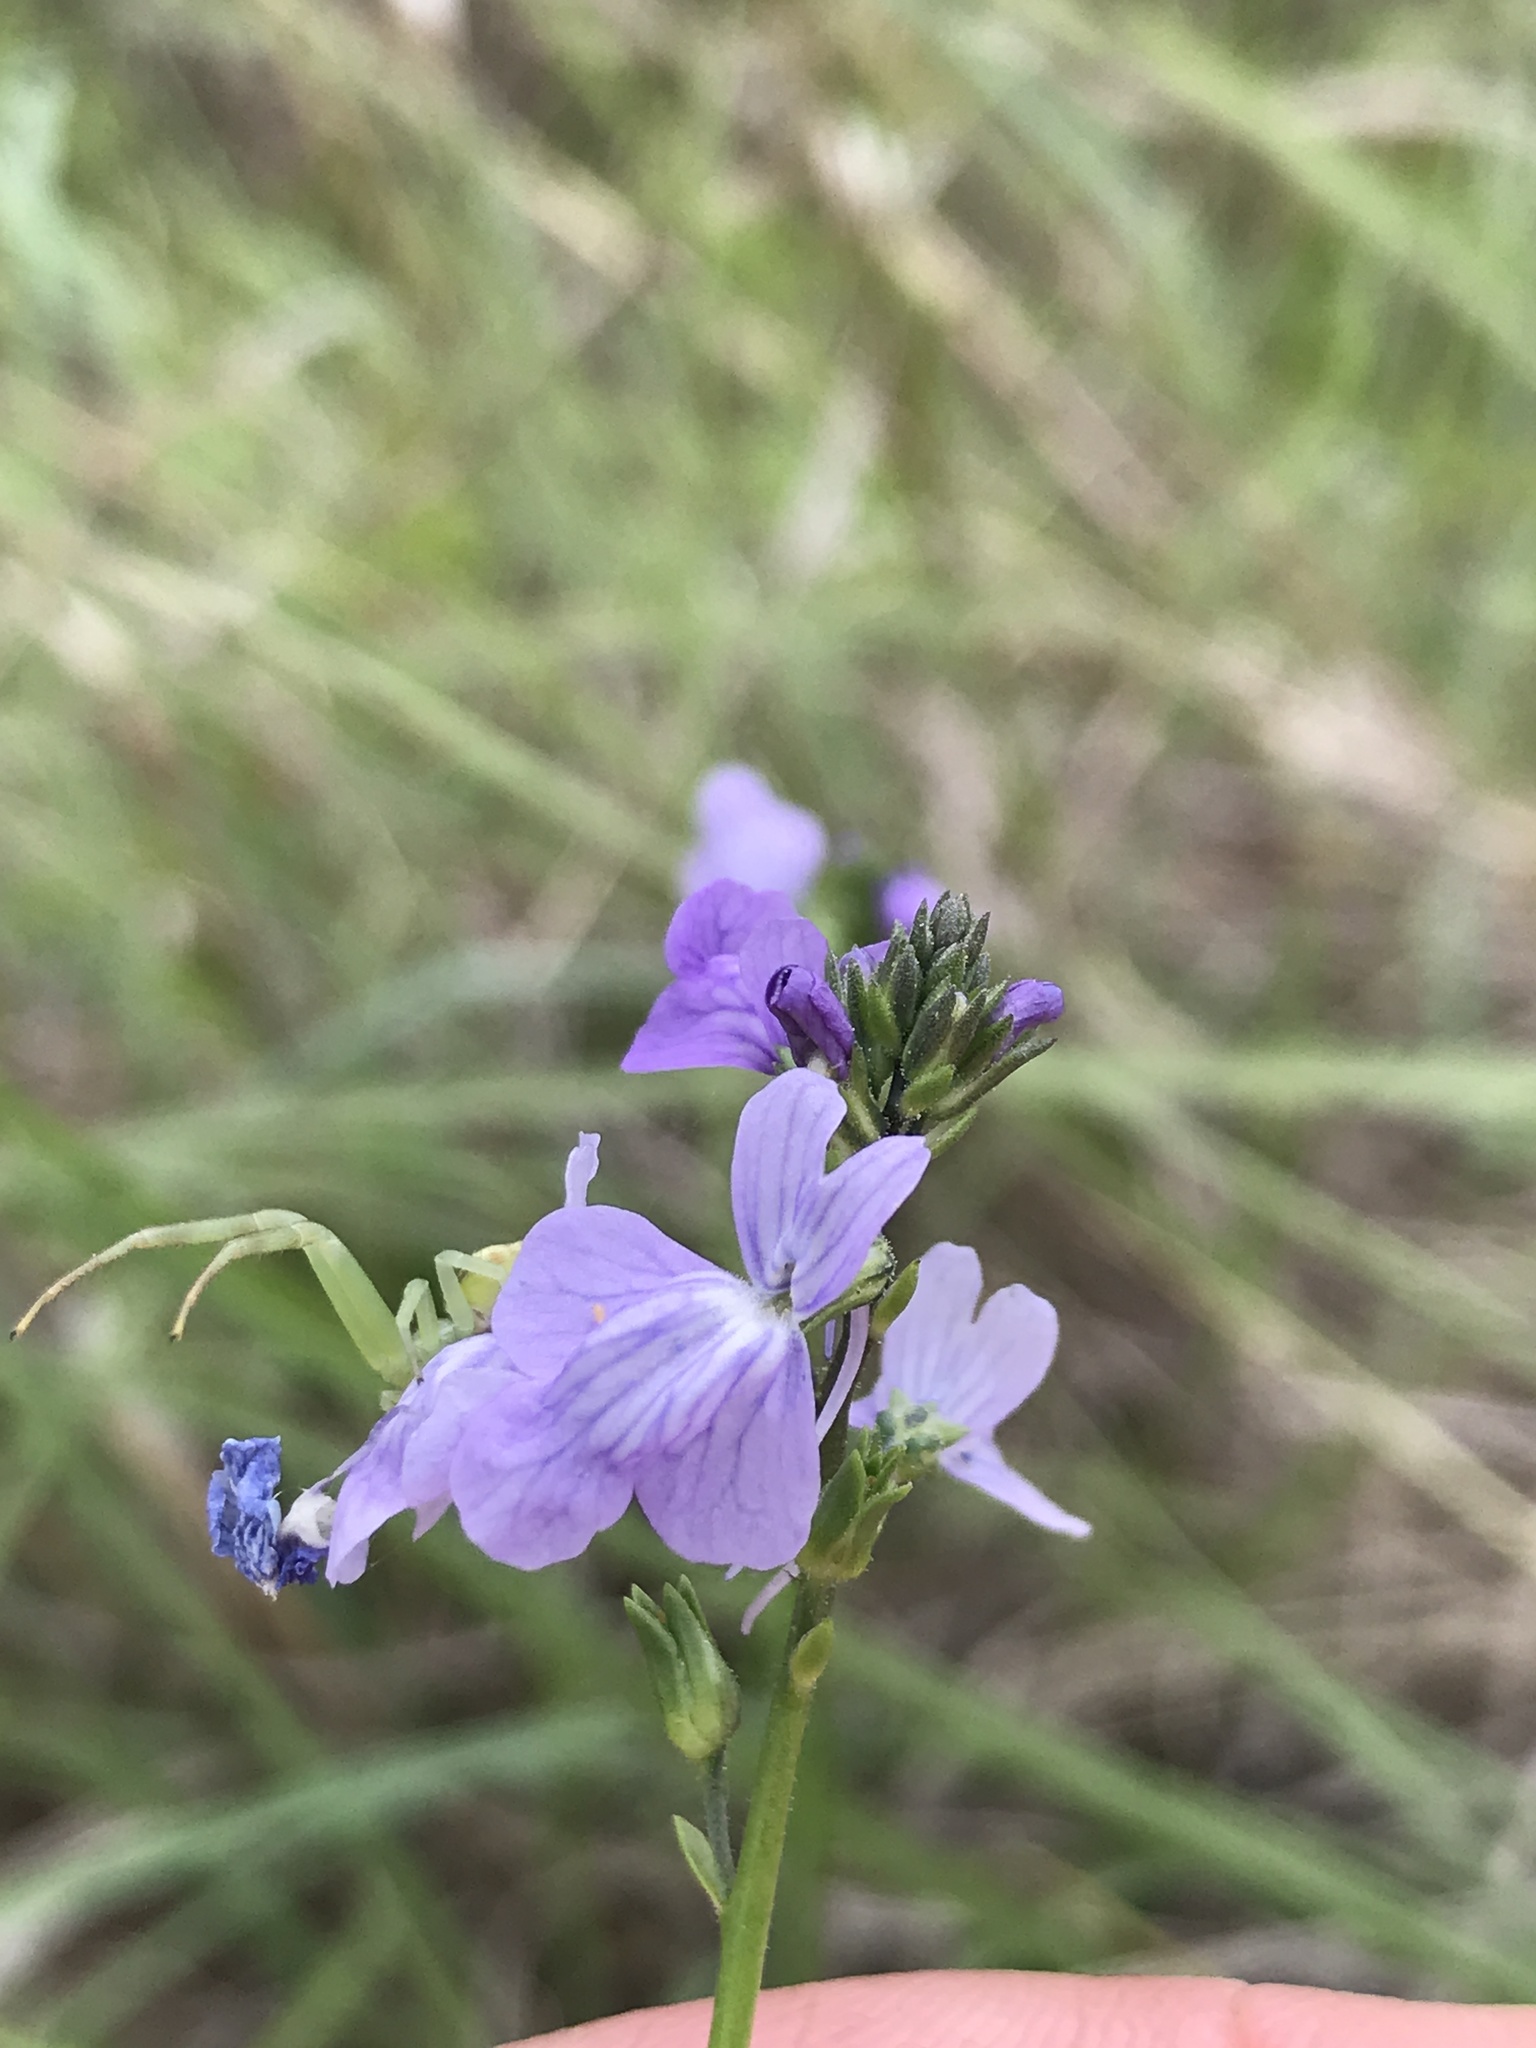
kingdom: Plantae
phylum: Tracheophyta
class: Magnoliopsida
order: Lamiales
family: Plantaginaceae
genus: Nuttallanthus
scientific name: Nuttallanthus texanus
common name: Texas toadflax
